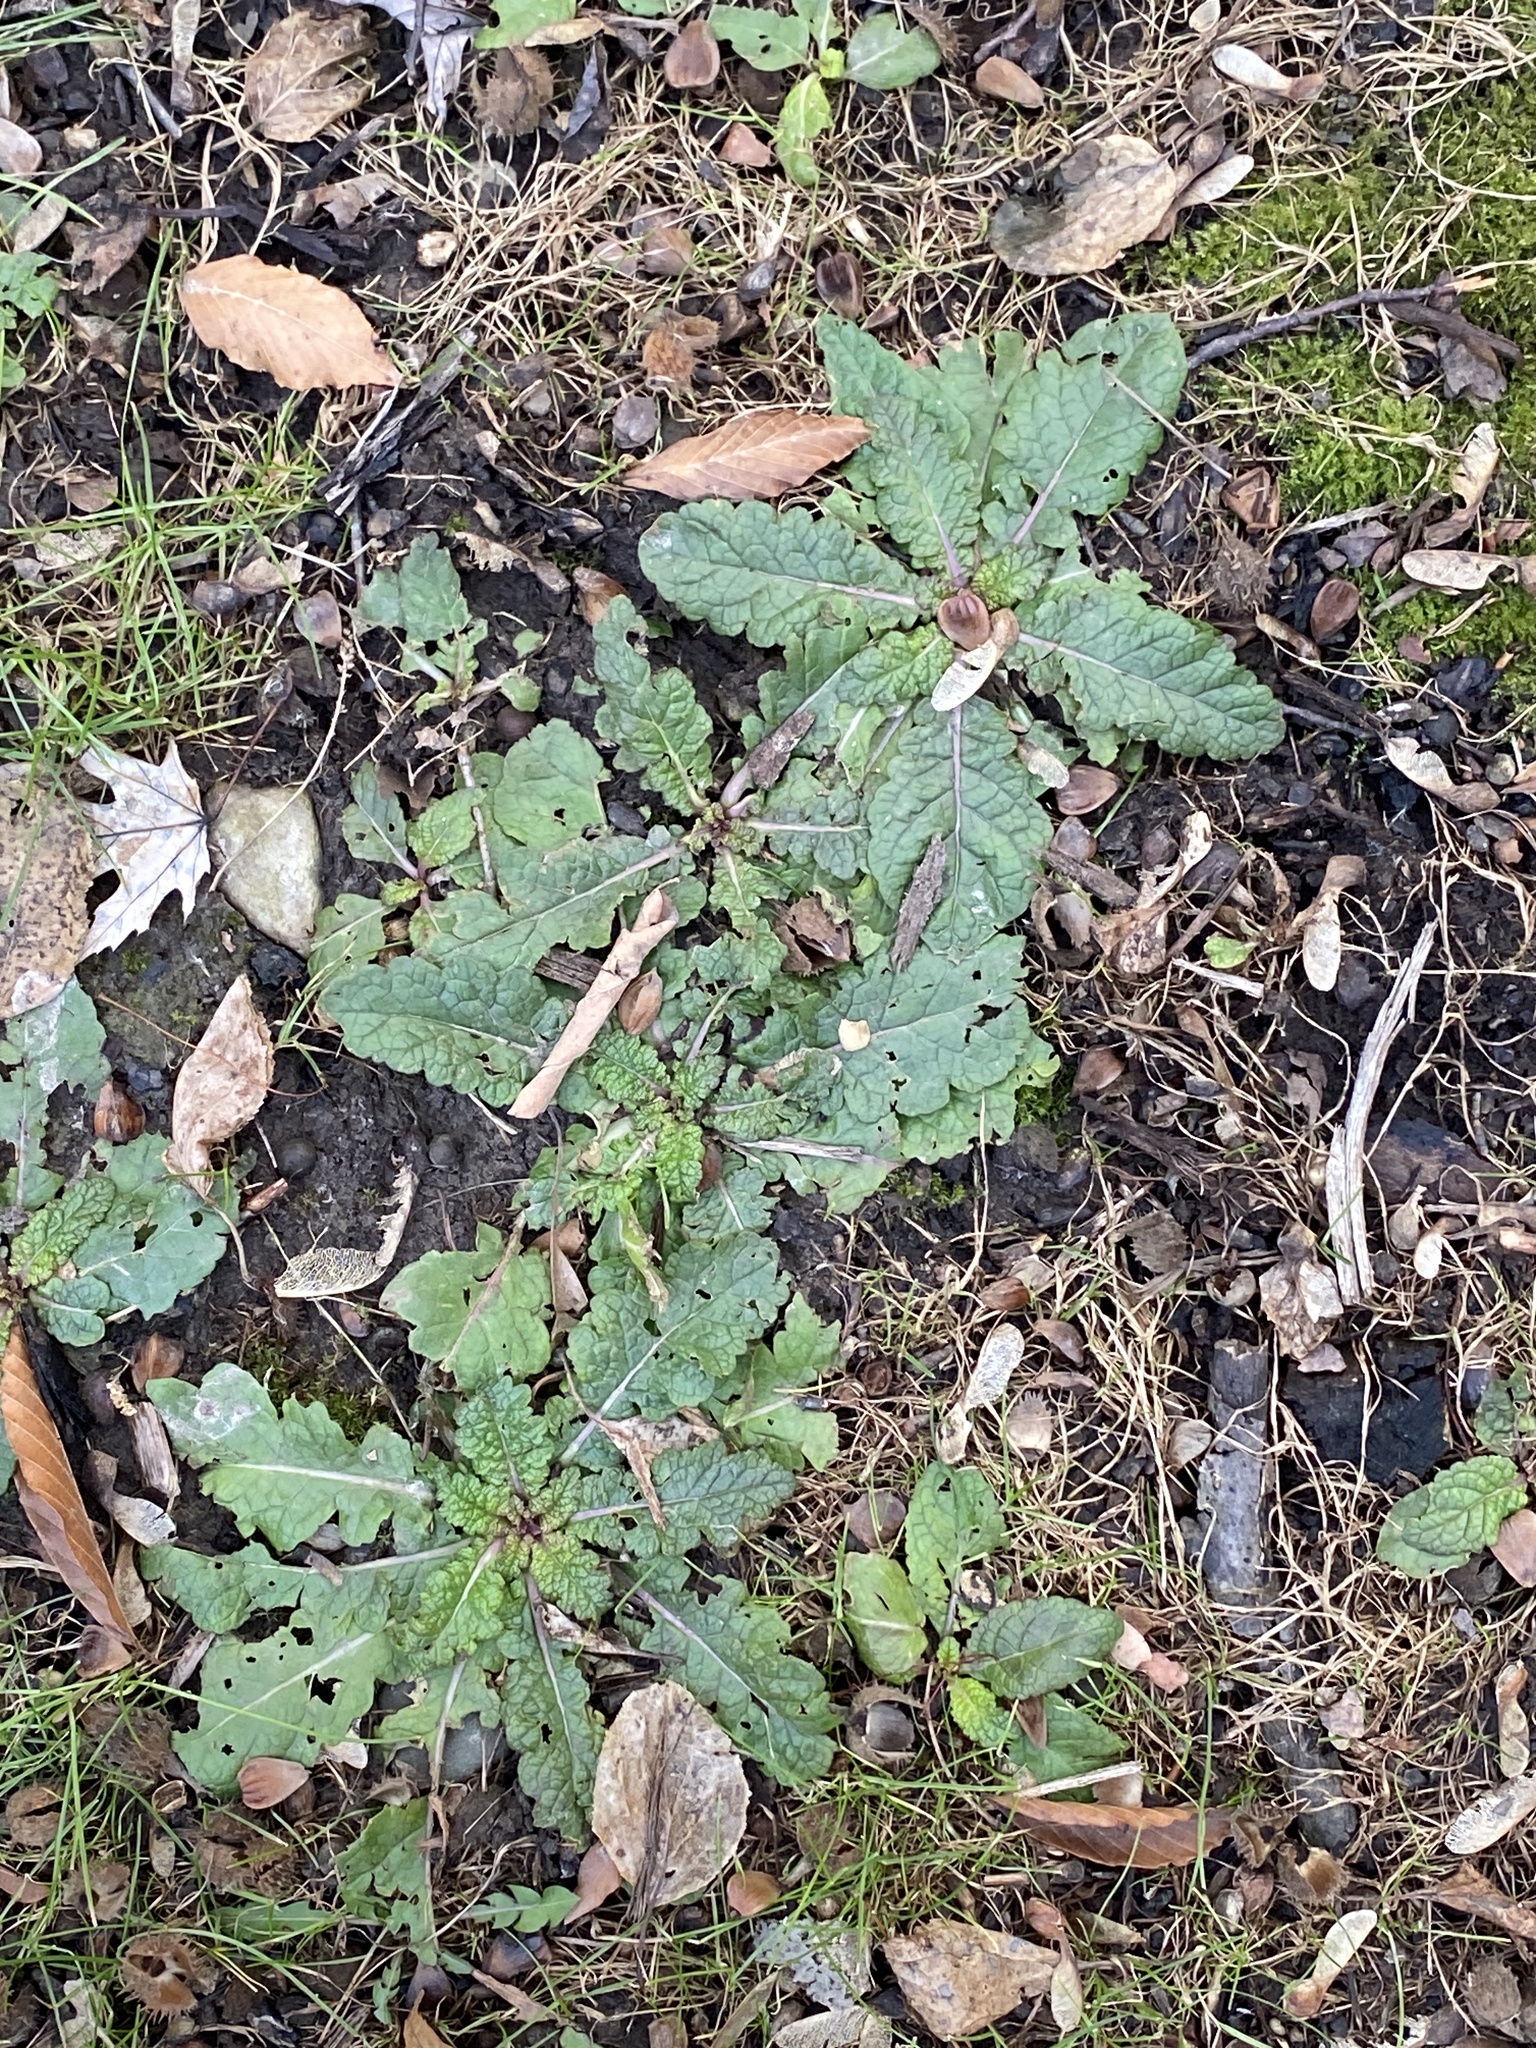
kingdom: Plantae
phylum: Tracheophyta
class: Magnoliopsida
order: Lamiales
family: Scrophulariaceae
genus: Verbascum
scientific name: Verbascum blattaria
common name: Moth mullein
